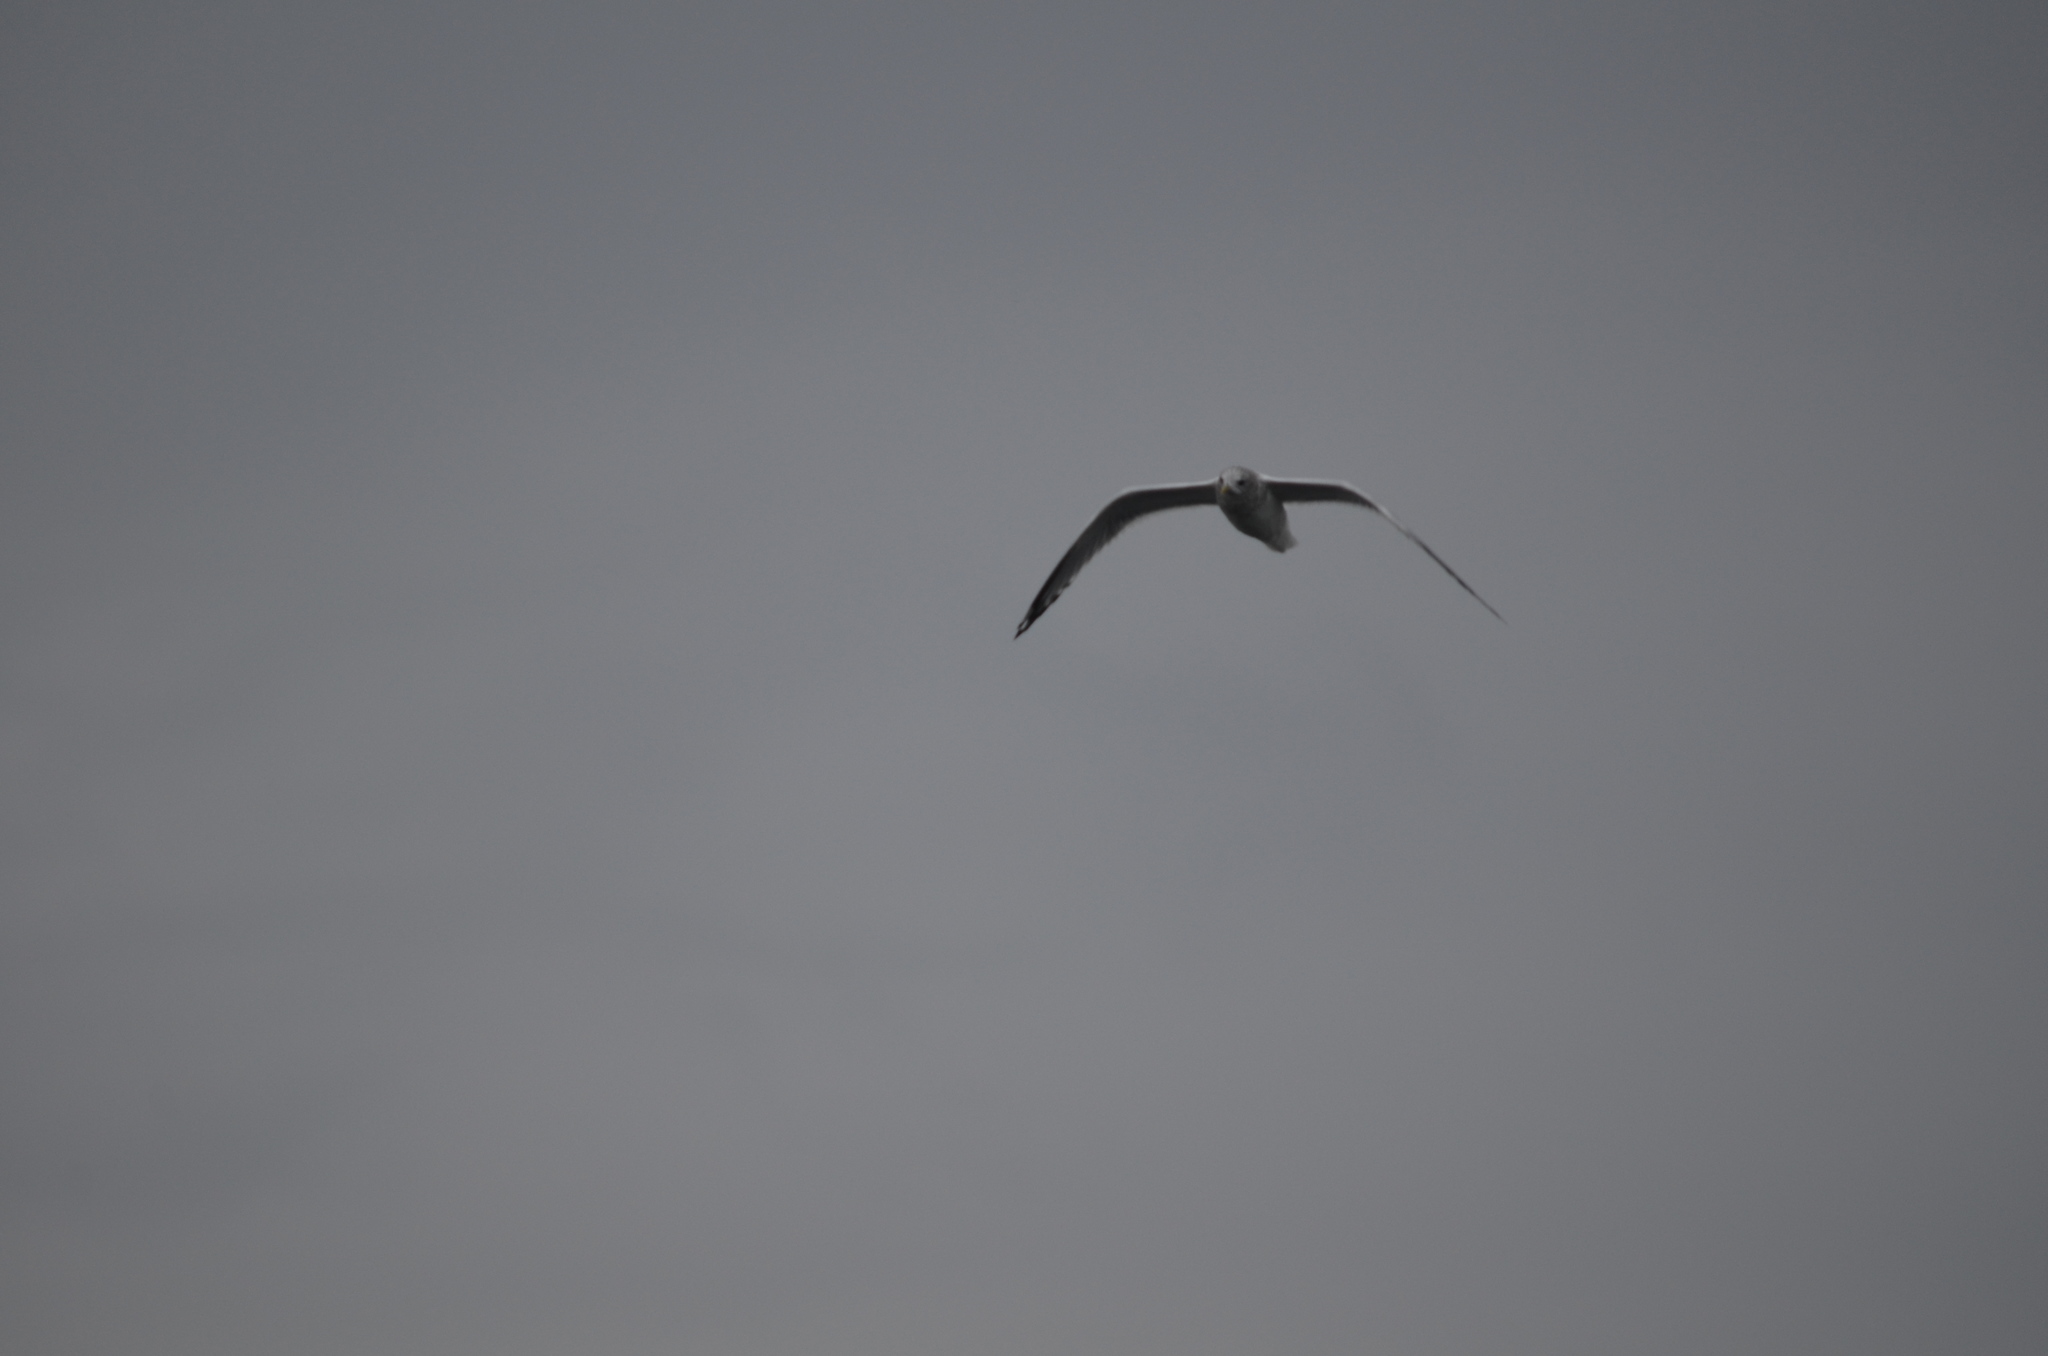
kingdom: Animalia
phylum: Chordata
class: Aves
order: Charadriiformes
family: Laridae
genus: Larus
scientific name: Larus brachyrhynchus
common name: Short-billed gull
